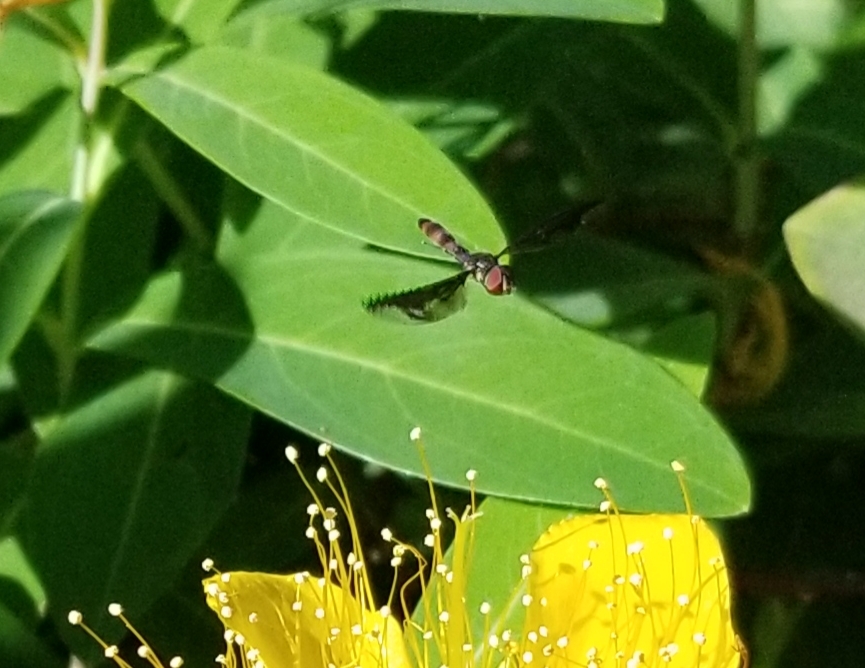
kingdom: Animalia
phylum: Arthropoda
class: Insecta
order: Diptera
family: Syrphidae
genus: Ocyptamus
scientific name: Ocyptamus fuscipennis
